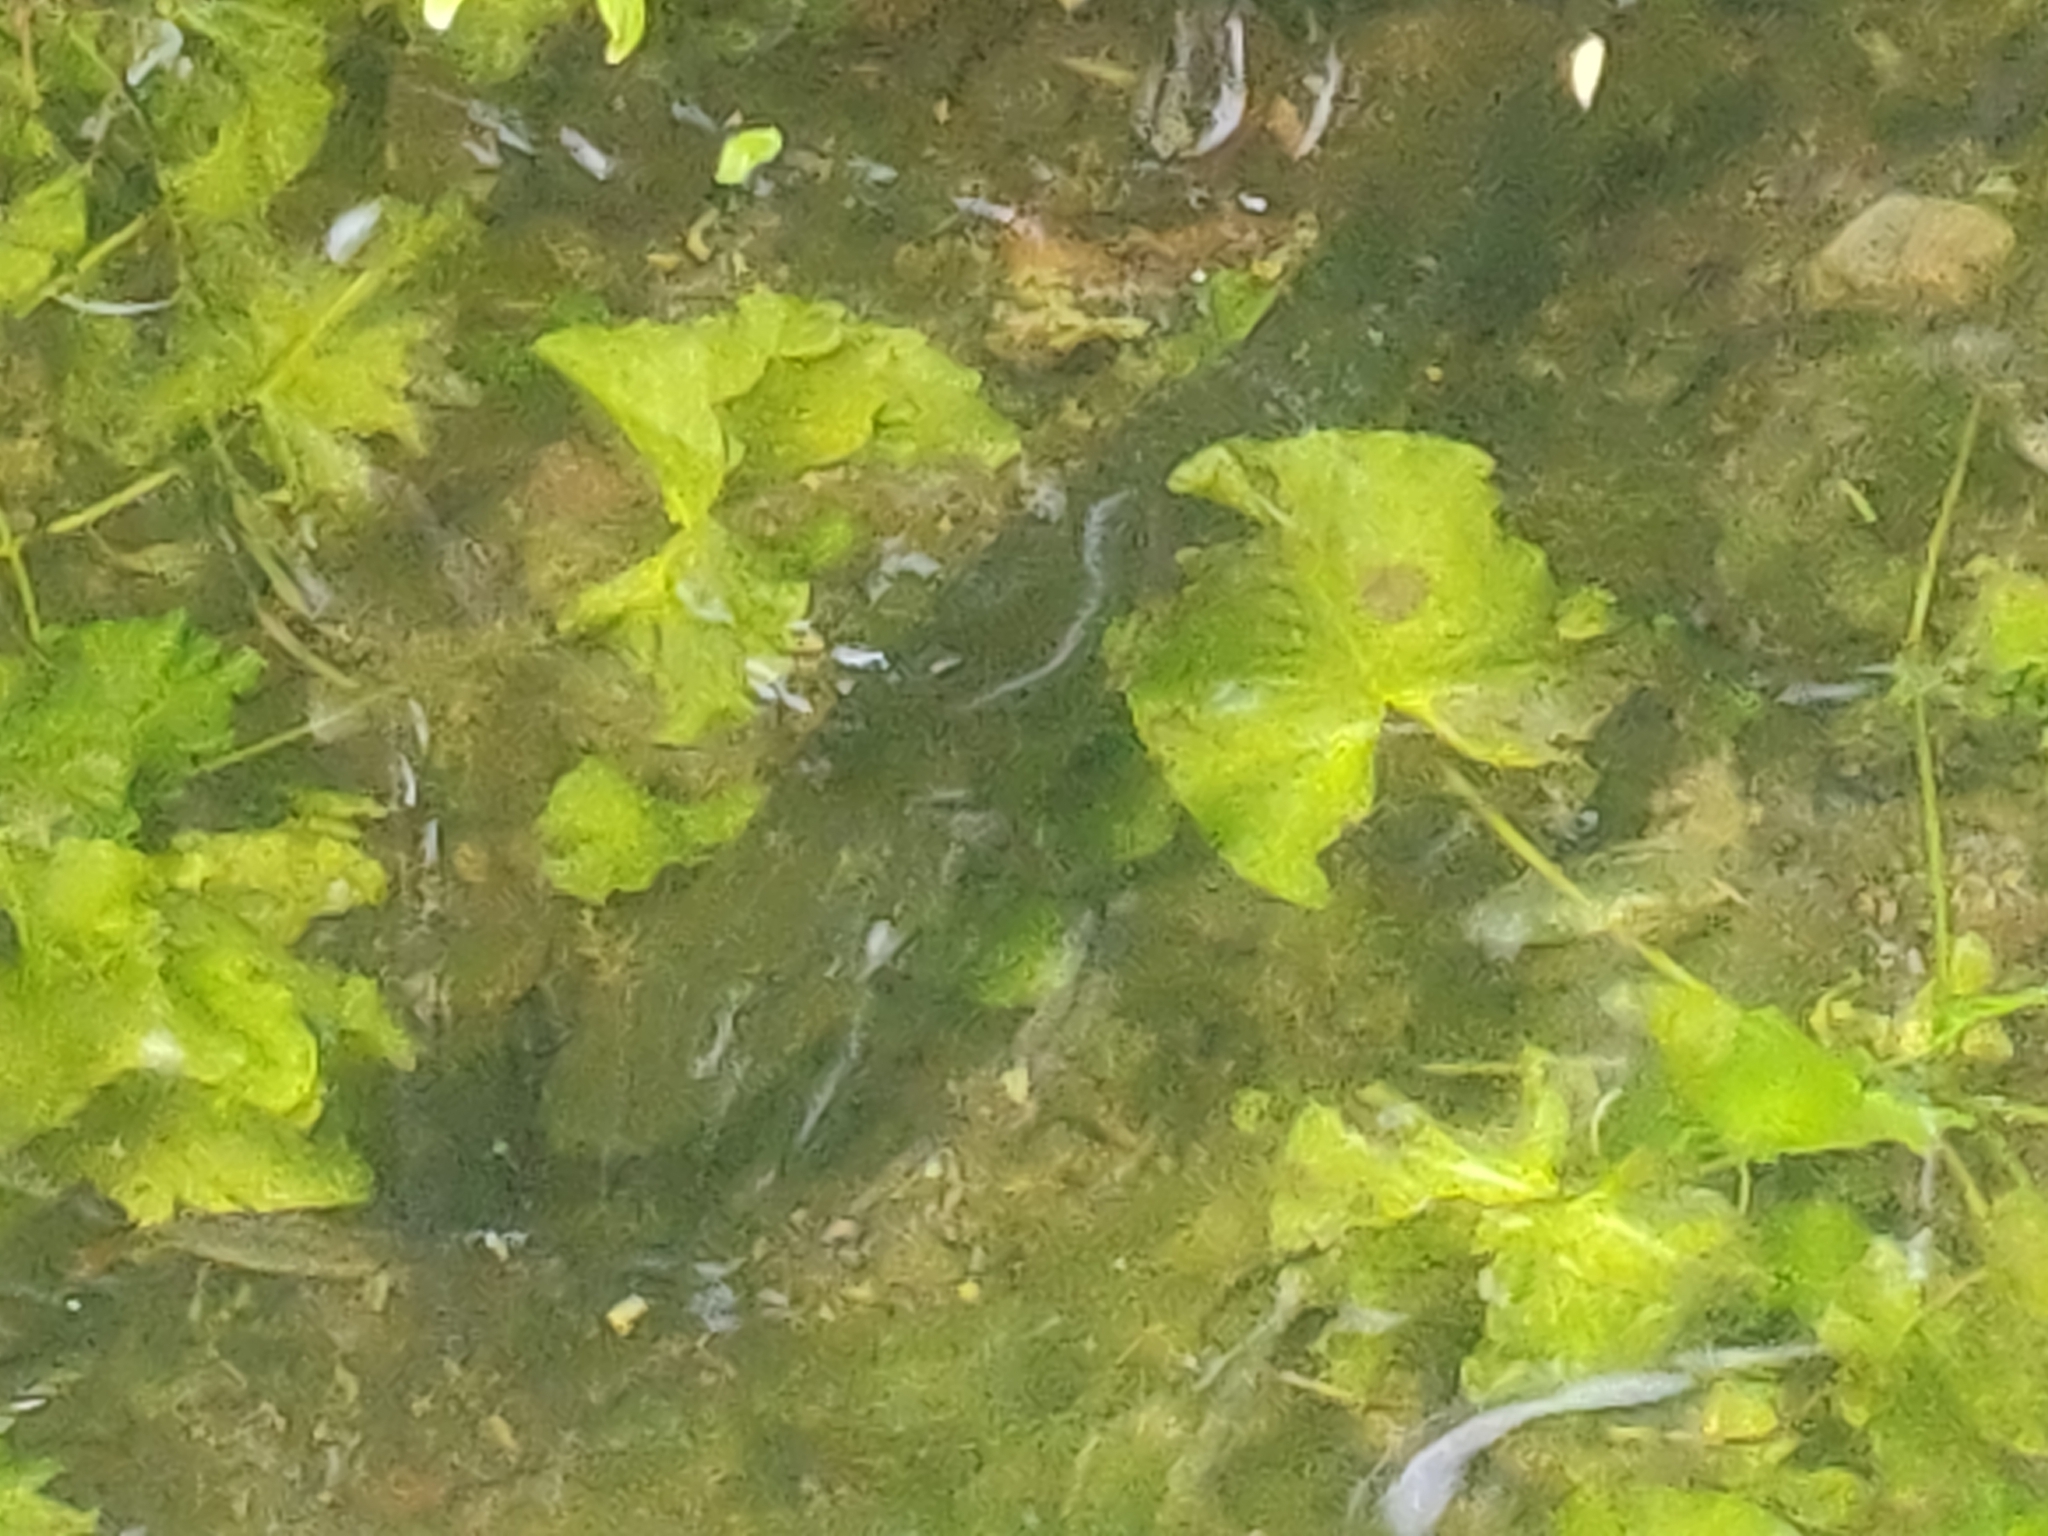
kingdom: Animalia
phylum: Chordata
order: Esociformes
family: Esocidae
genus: Esox
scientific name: Esox lucius
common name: Northern pike
